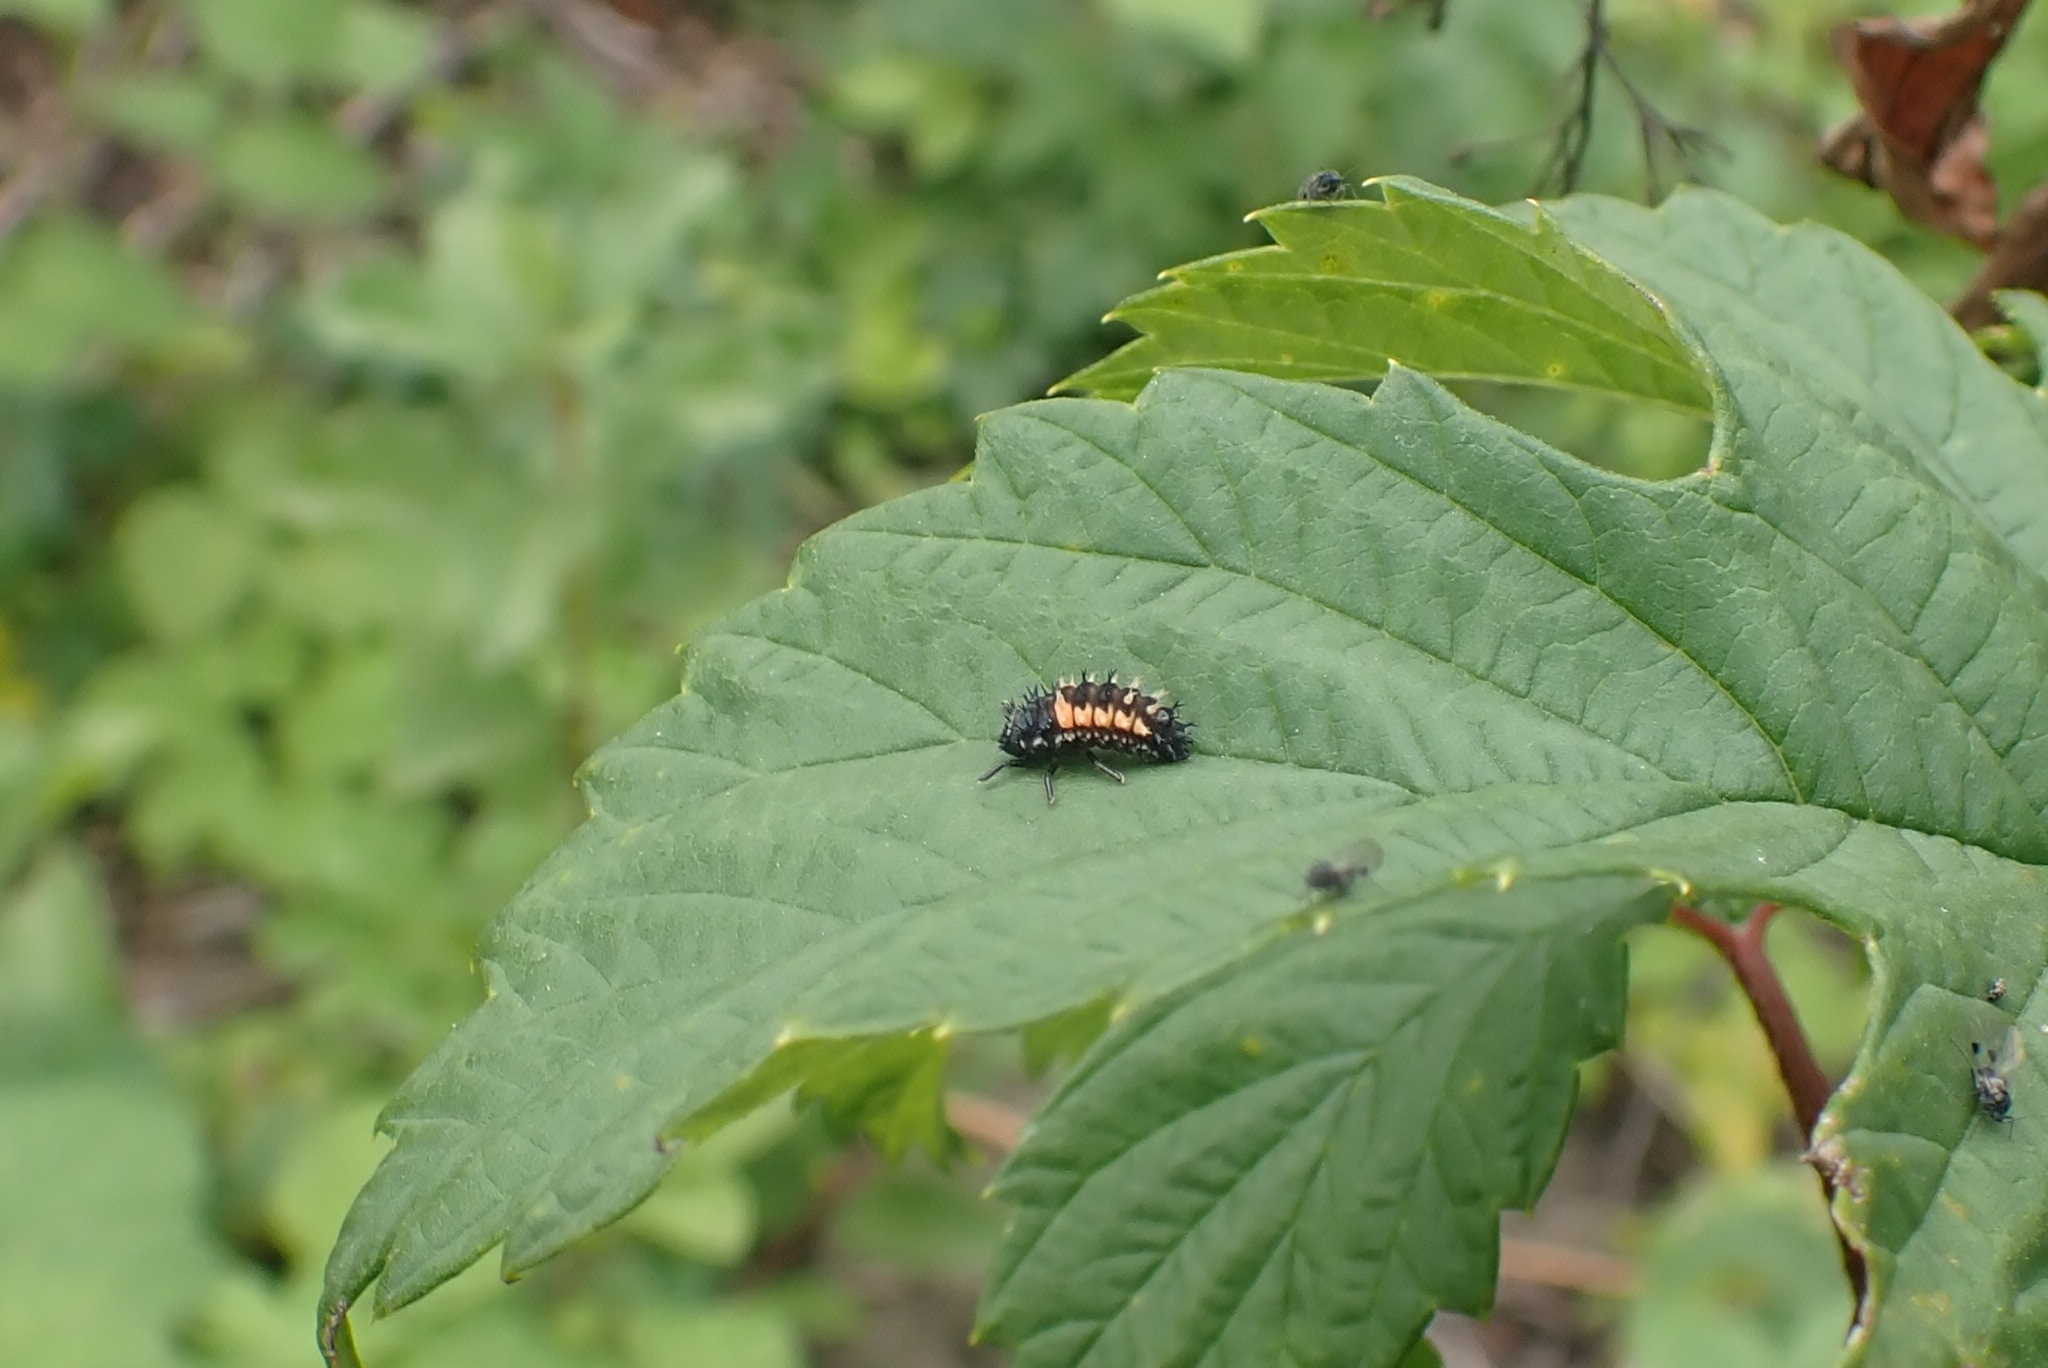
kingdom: Animalia
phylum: Arthropoda
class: Insecta
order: Coleoptera
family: Coccinellidae
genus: Harmonia
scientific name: Harmonia axyridis
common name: Harlequin ladybird
